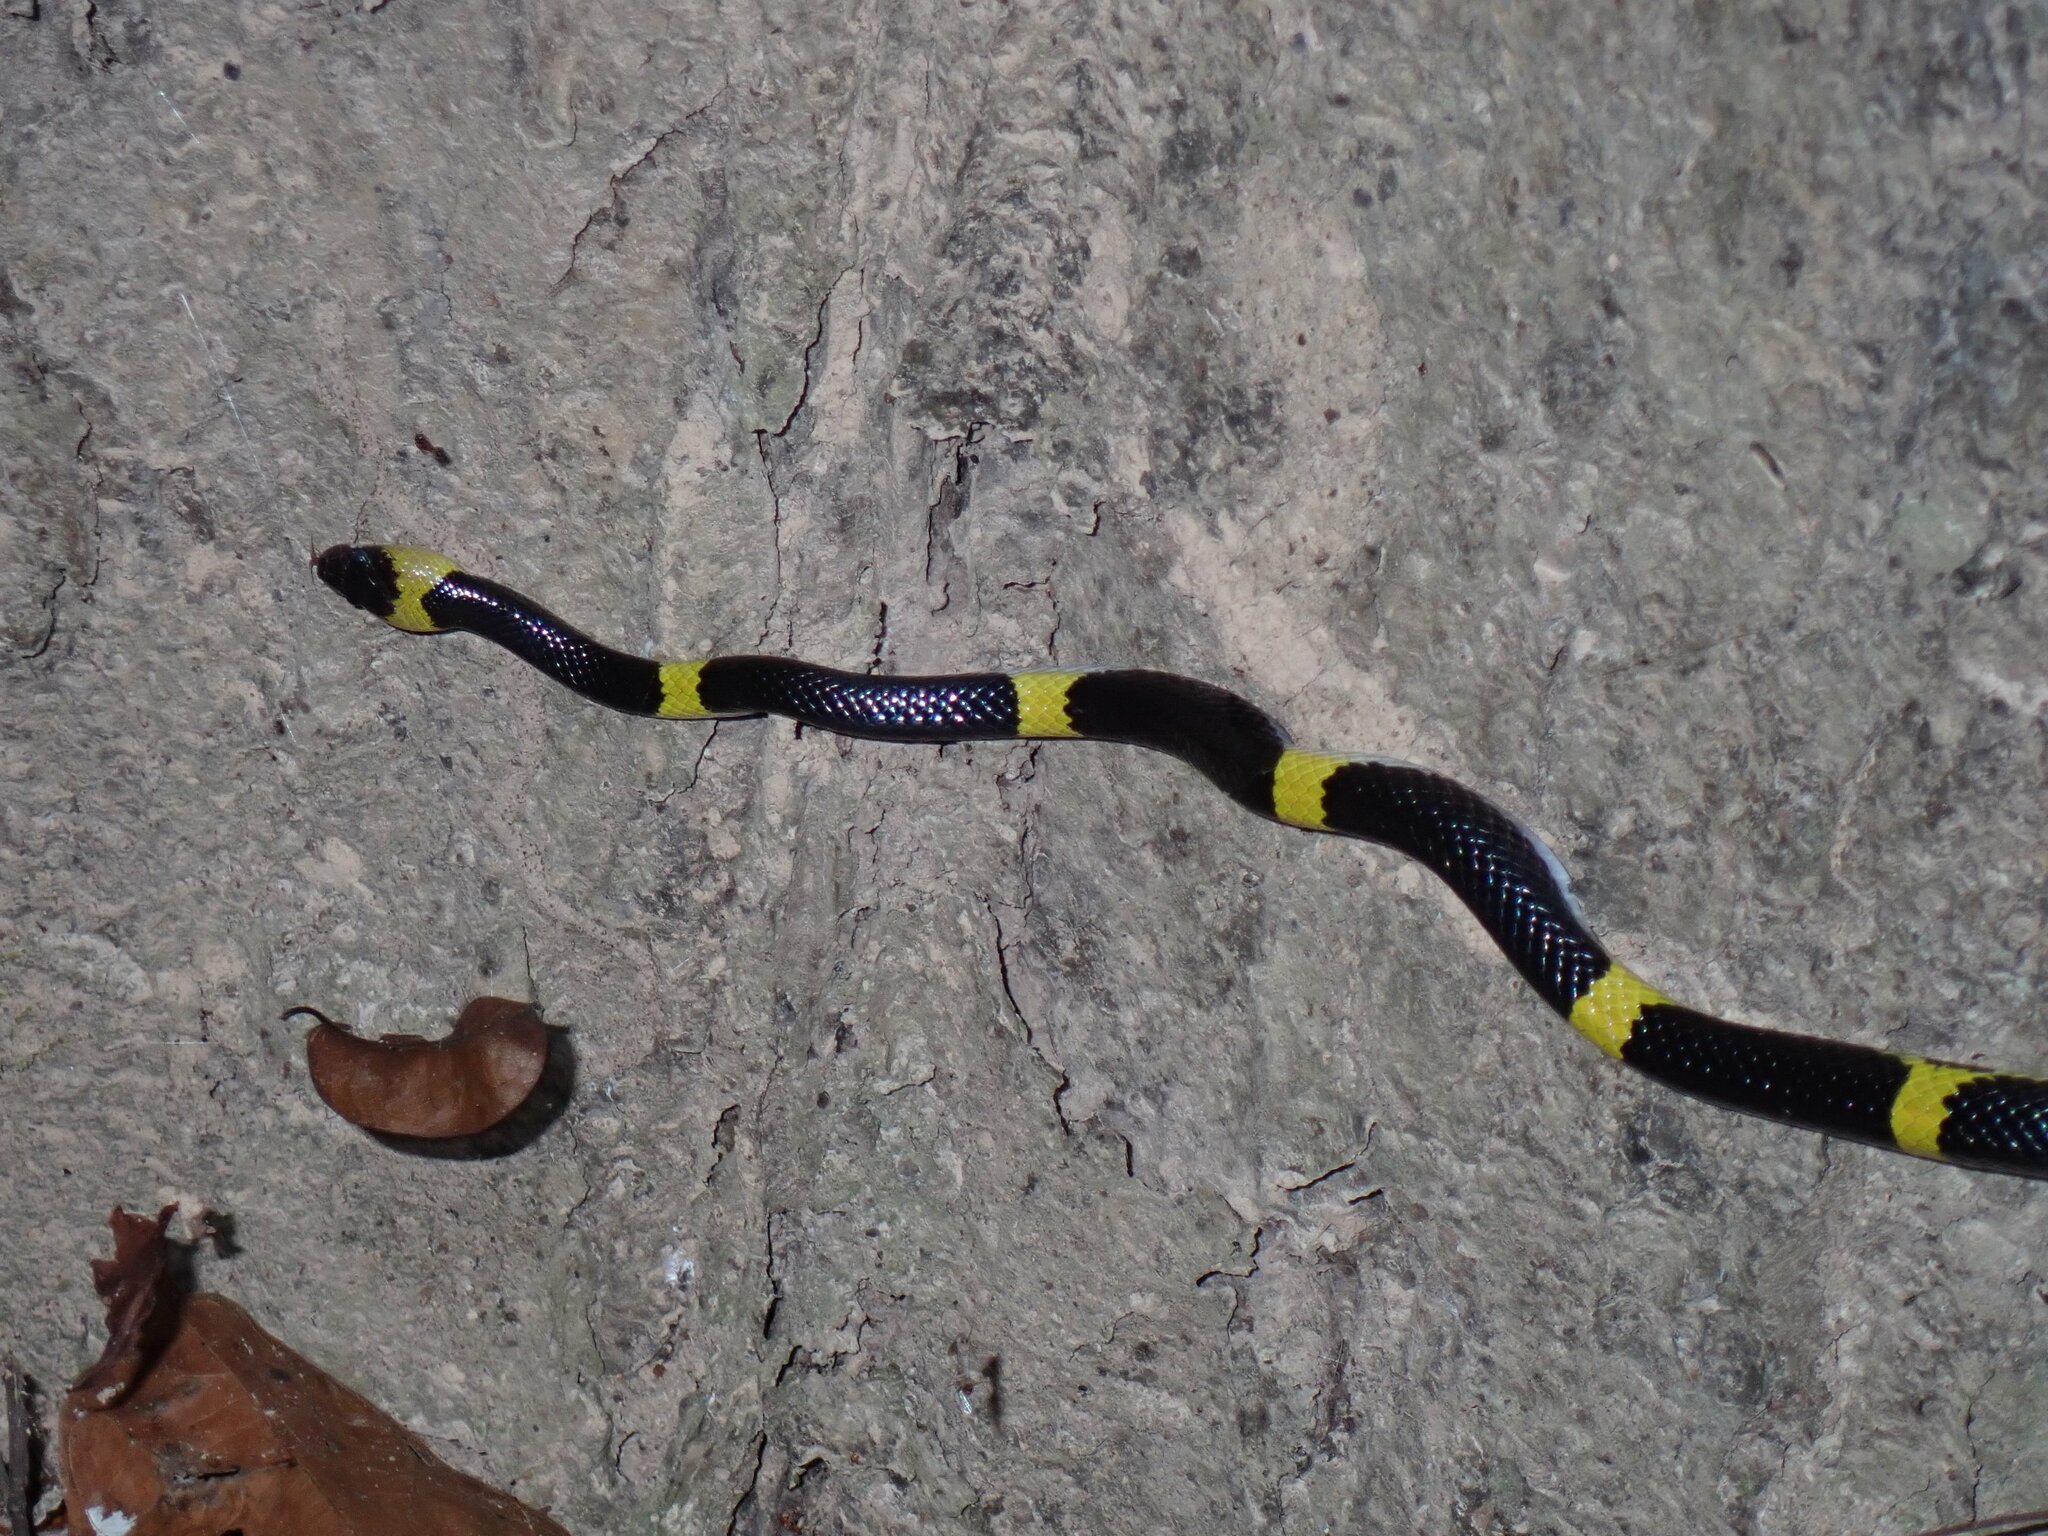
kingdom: Animalia
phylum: Chordata
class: Squamata
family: Colubridae
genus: Lycodon
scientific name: Lycodon laoensis
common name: Laotian wolf snake
